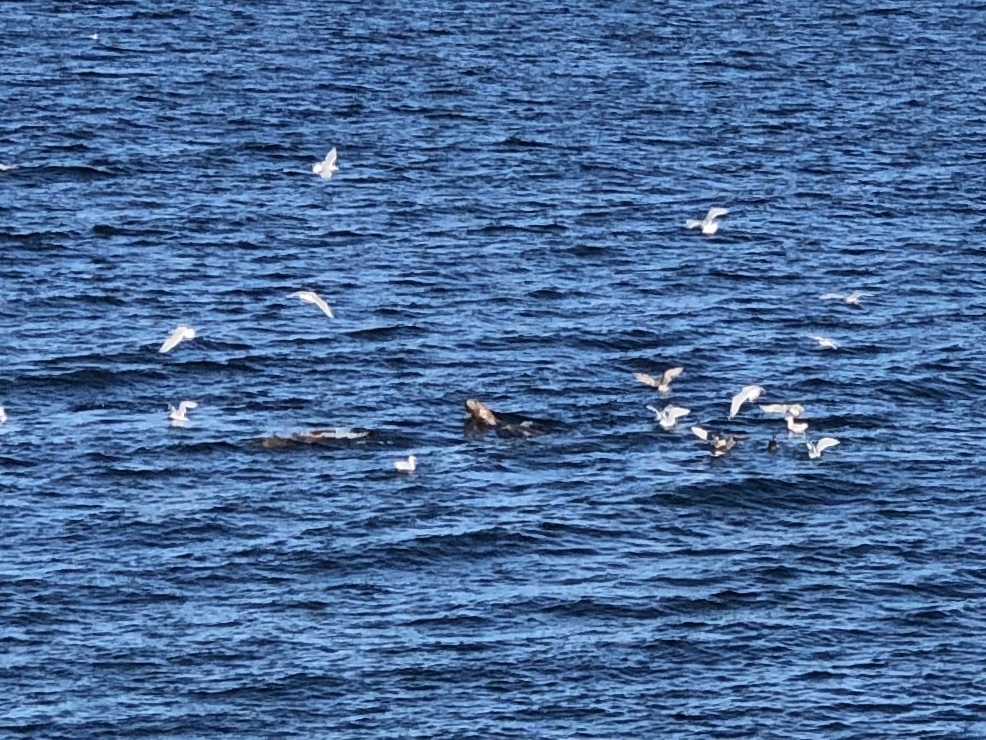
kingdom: Animalia
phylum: Chordata
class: Mammalia
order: Carnivora
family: Otariidae
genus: Eumetopias
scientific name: Eumetopias jubatus
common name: Steller sea lion
